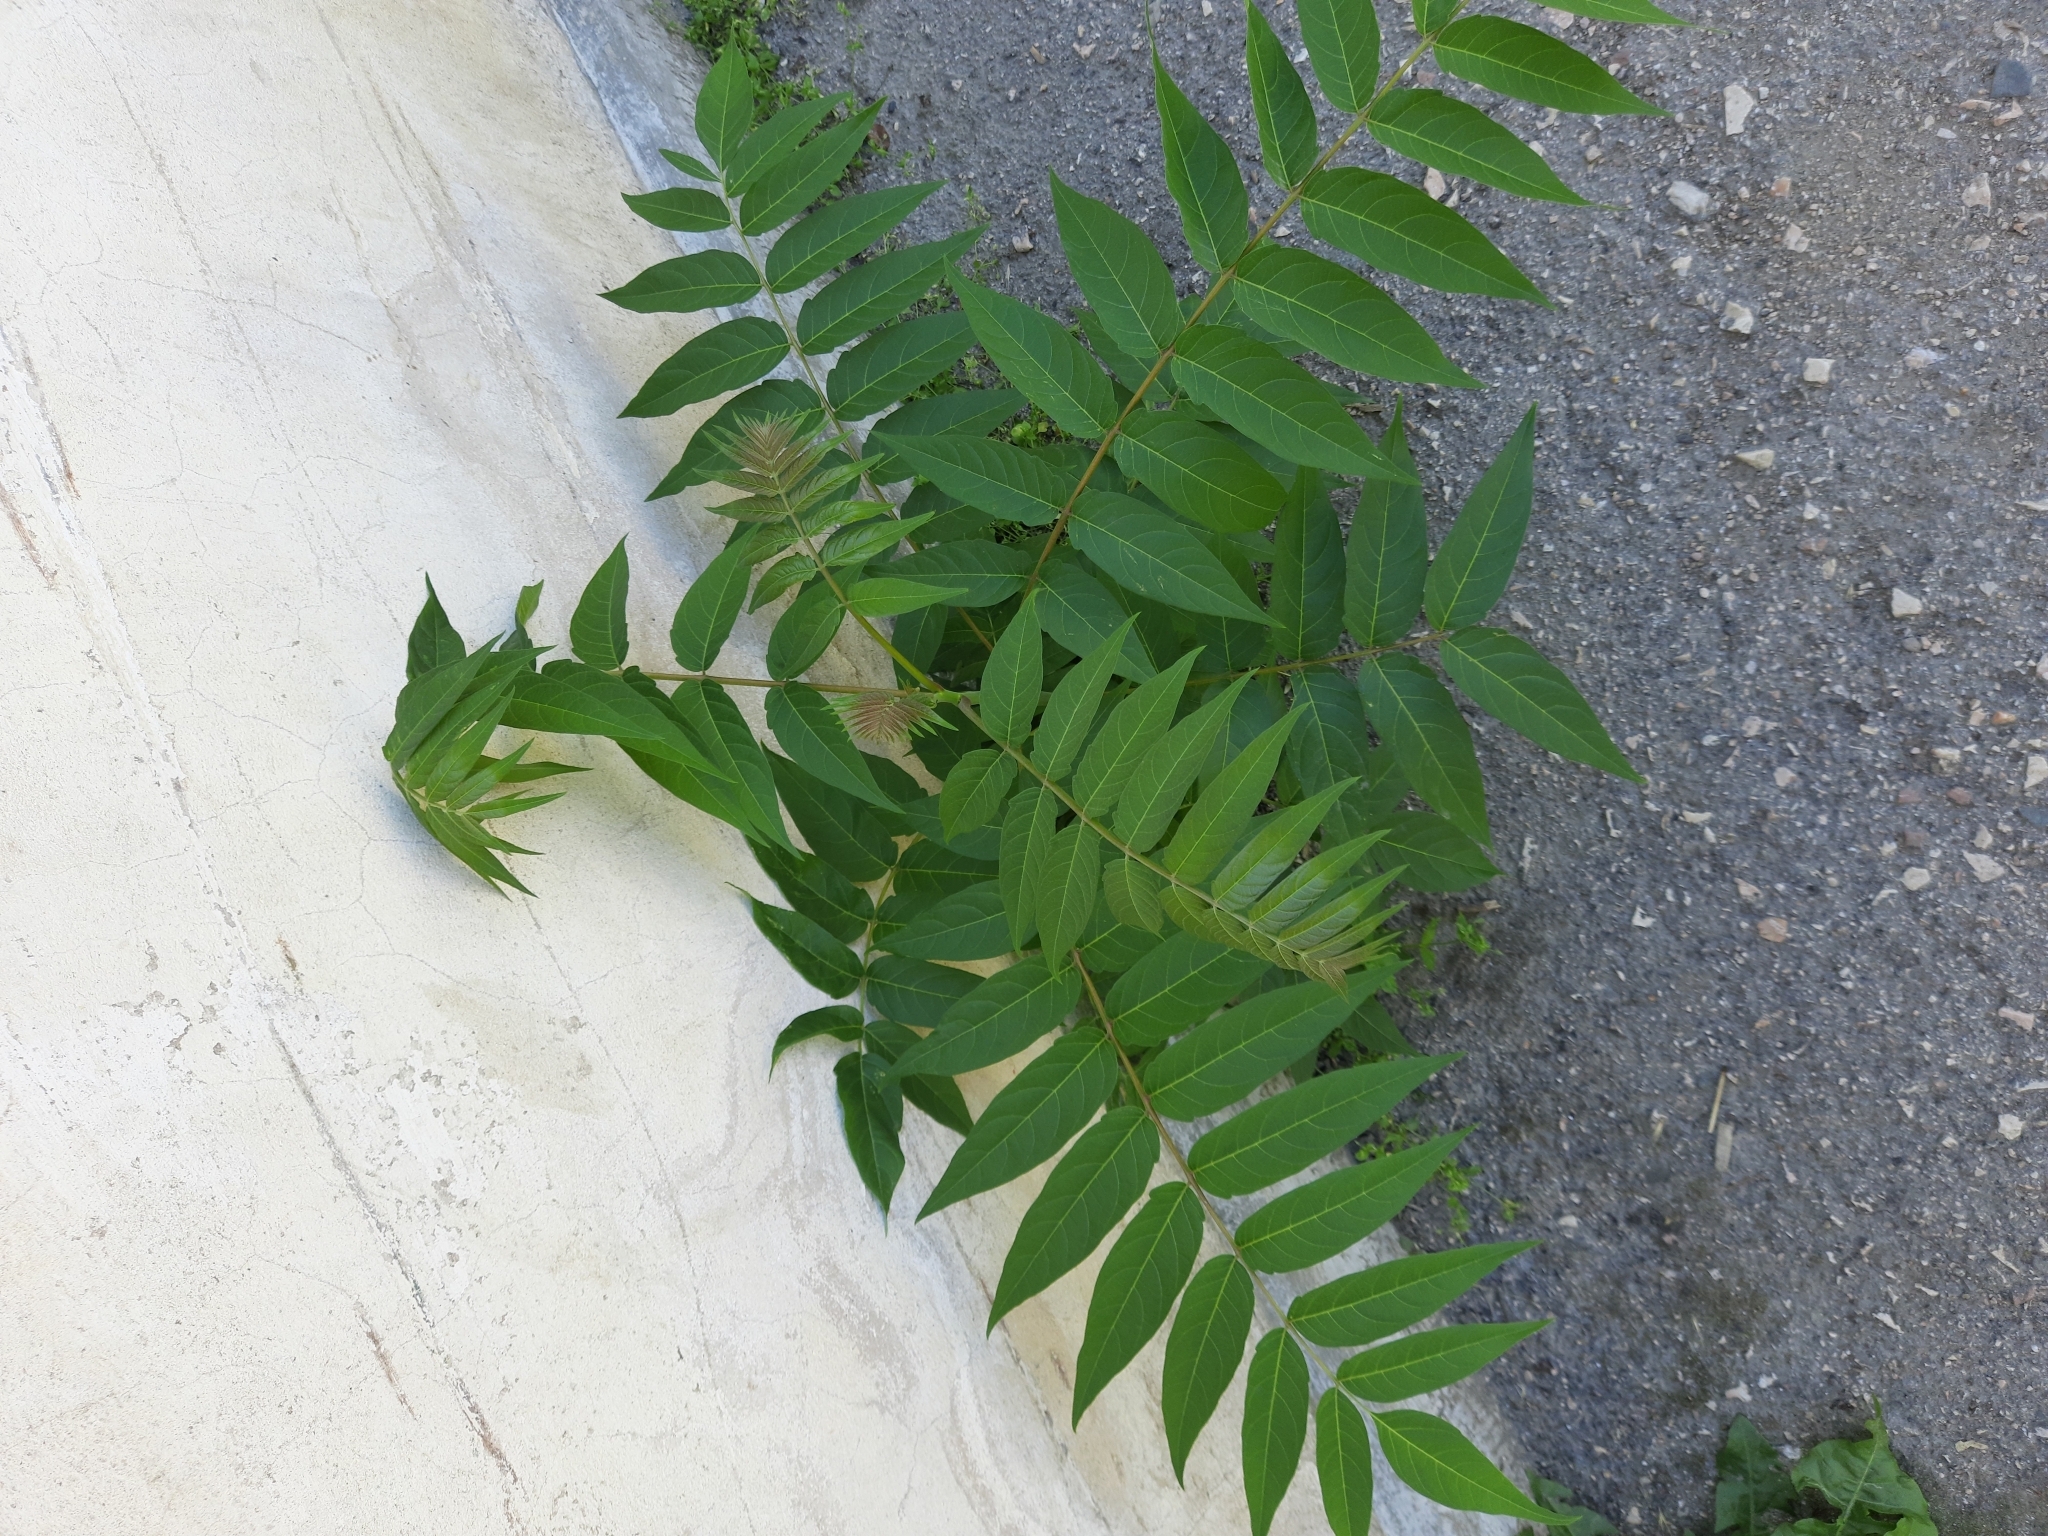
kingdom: Plantae
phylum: Tracheophyta
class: Magnoliopsida
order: Sapindales
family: Simaroubaceae
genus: Ailanthus
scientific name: Ailanthus altissima
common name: Tree-of-heaven
